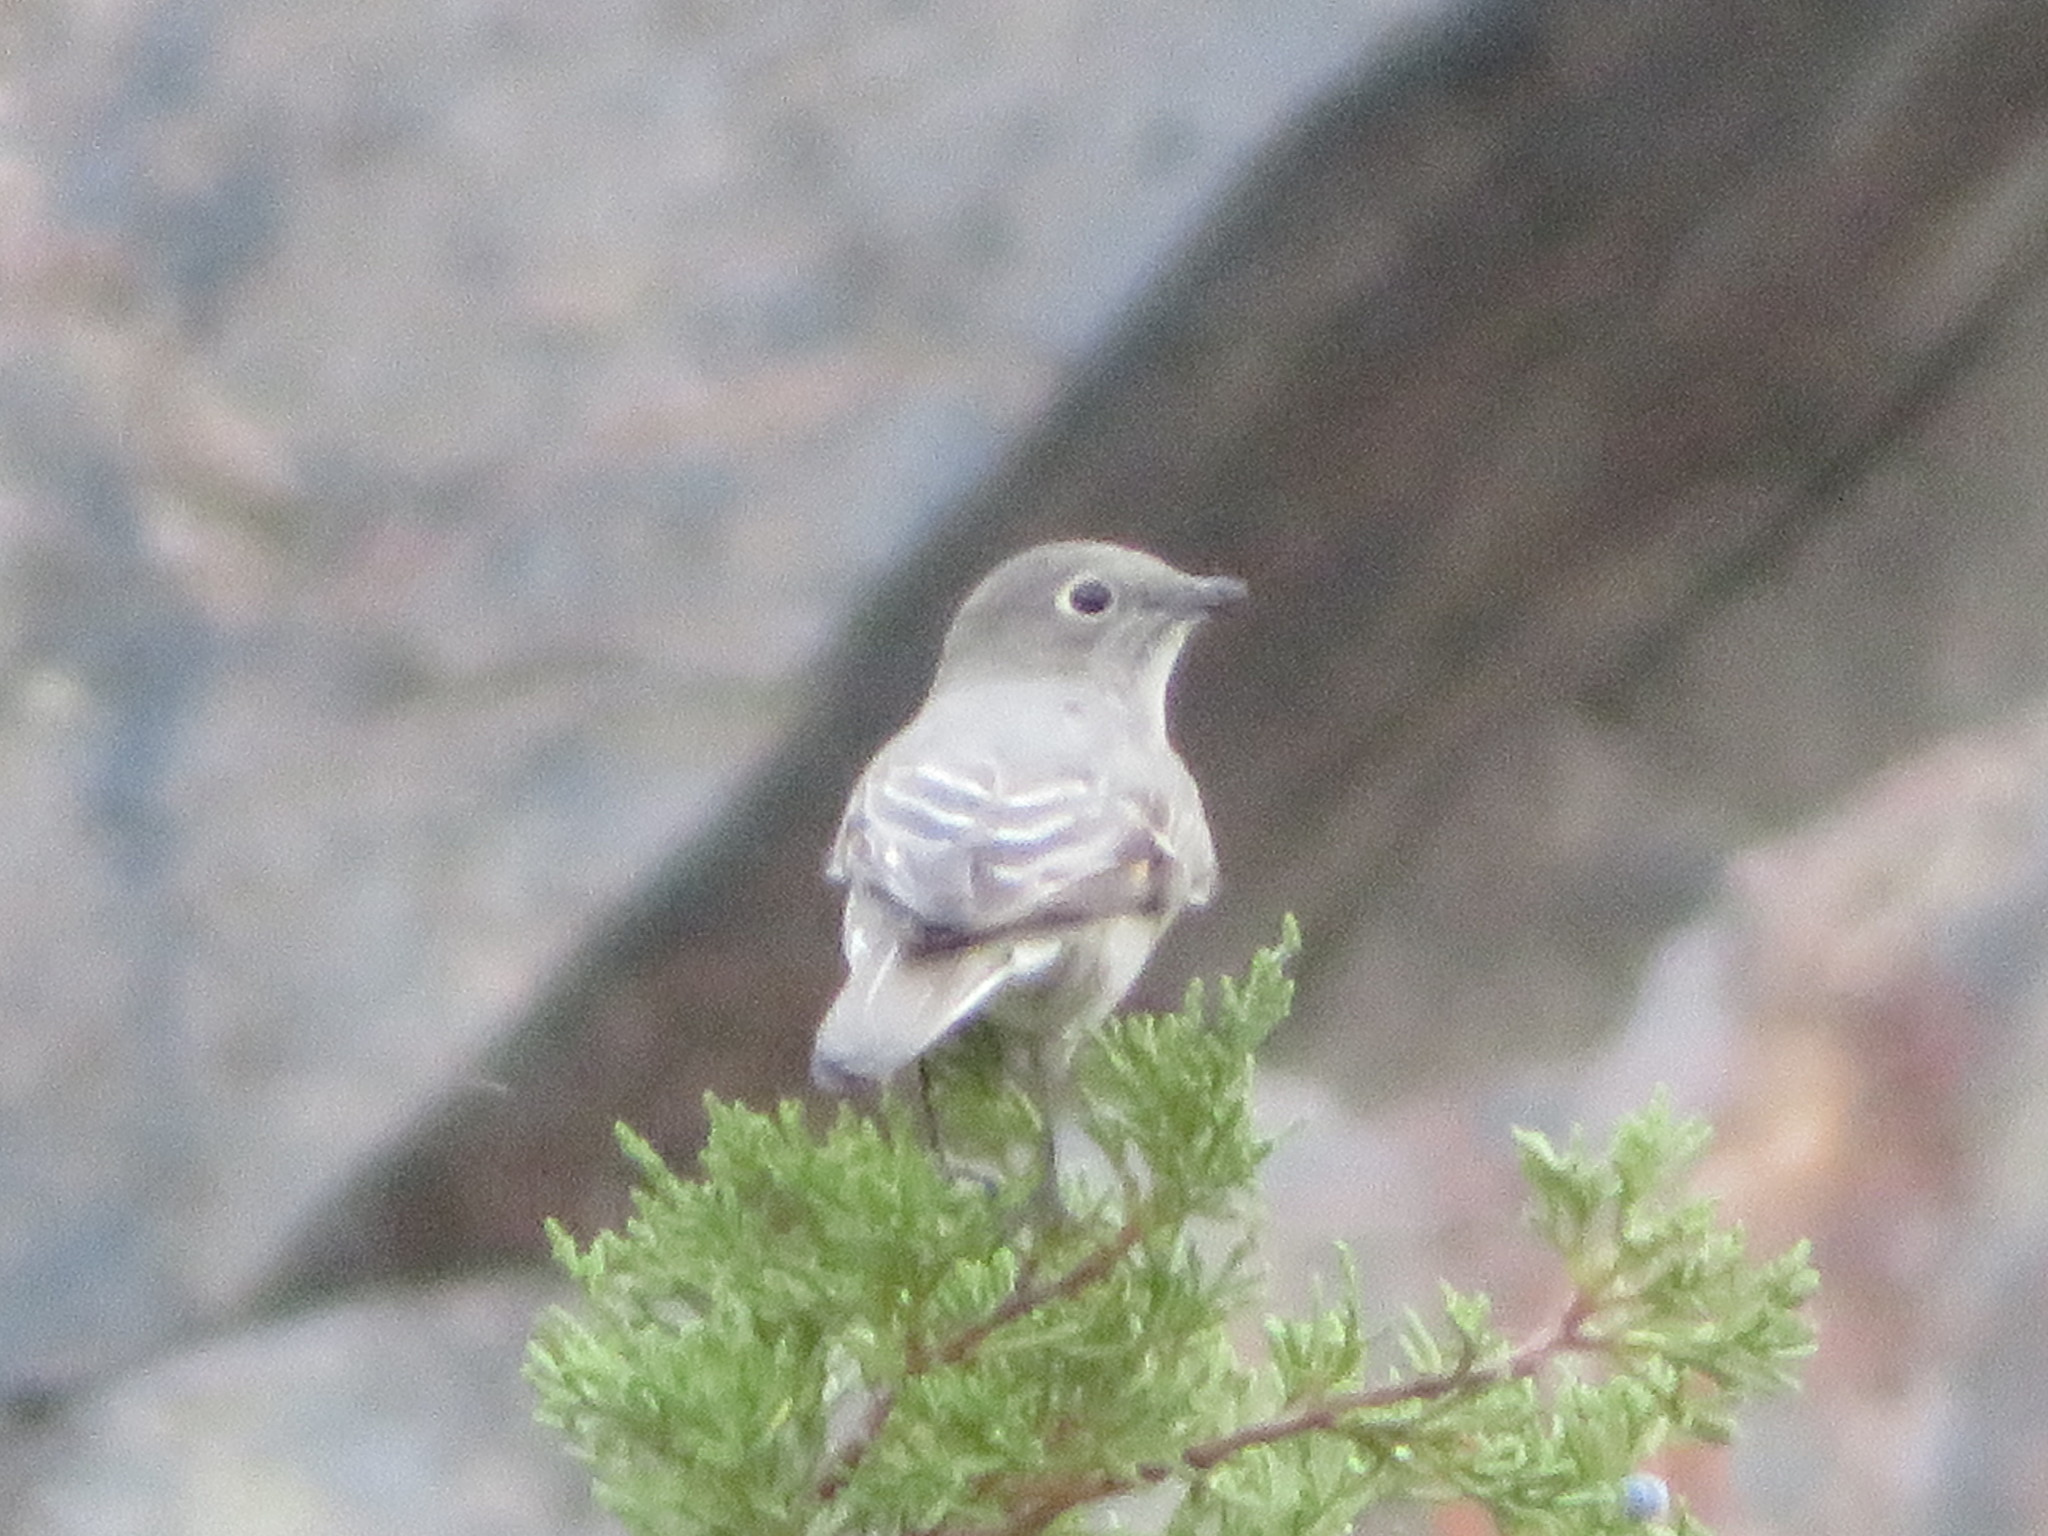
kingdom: Animalia
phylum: Chordata
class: Aves
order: Passeriformes
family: Turdidae
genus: Myadestes
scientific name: Myadestes townsendi
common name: Townsend's solitaire
